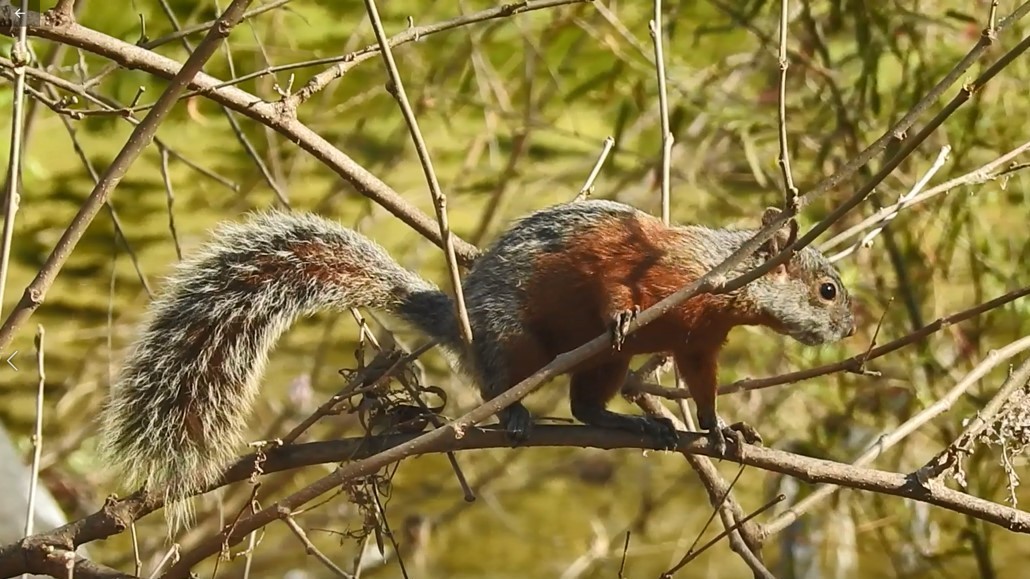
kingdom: Animalia
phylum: Chordata
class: Mammalia
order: Rodentia
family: Sciuridae
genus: Sciurus
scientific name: Sciurus aureogaster
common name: Red-bellied squirrel
